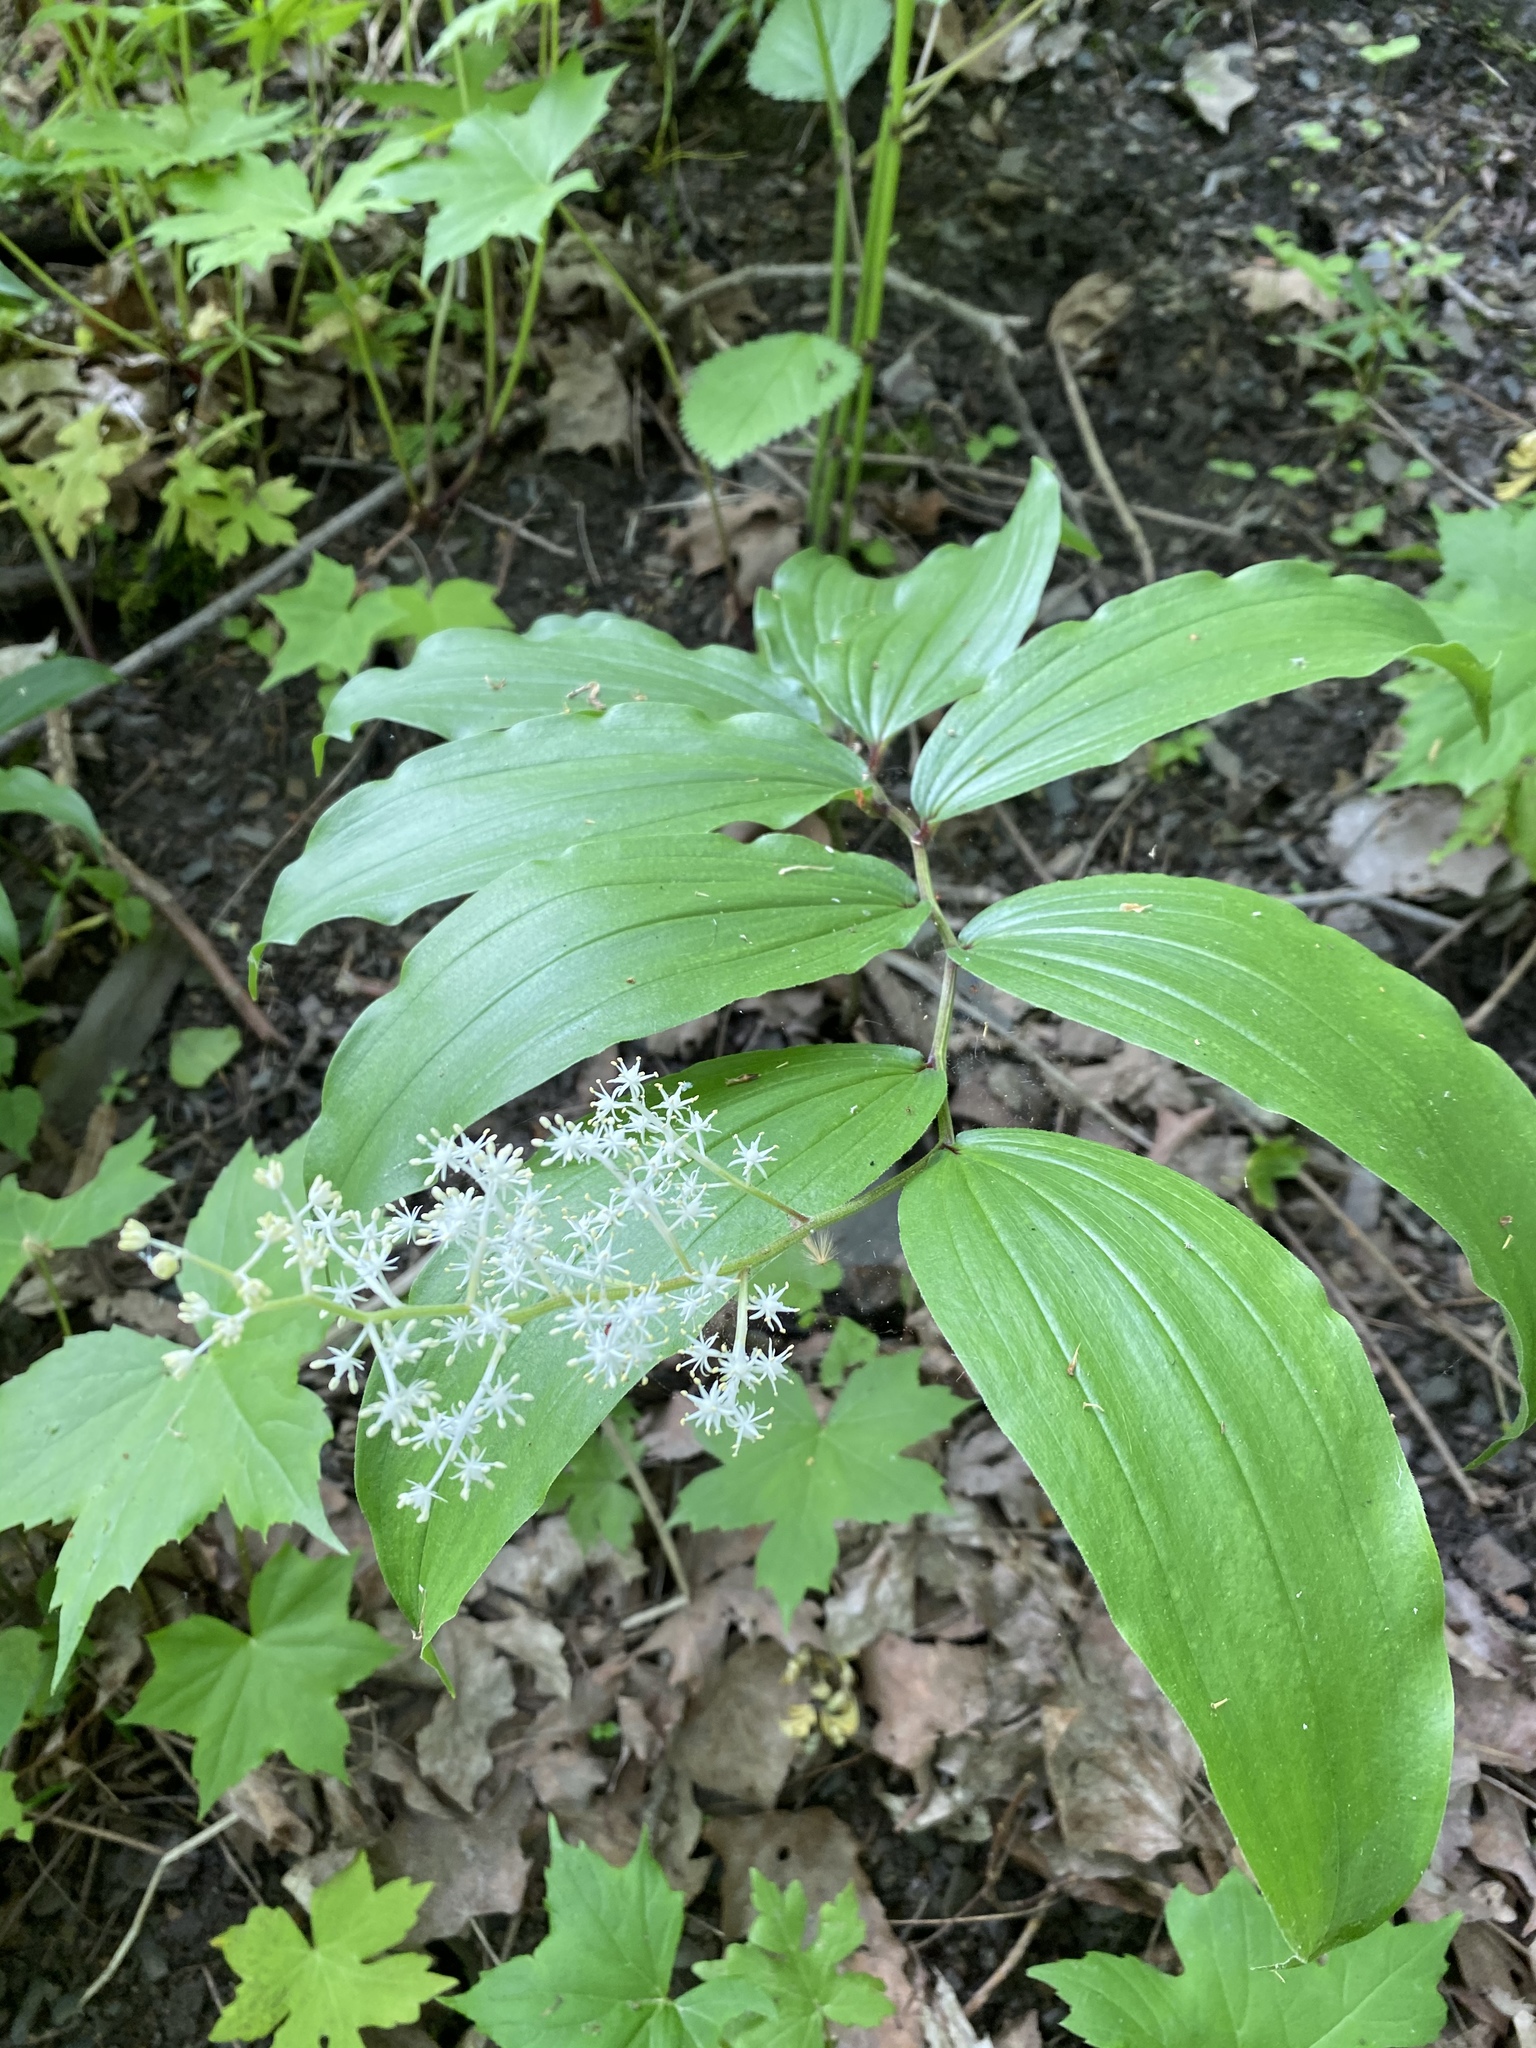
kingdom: Plantae
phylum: Tracheophyta
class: Liliopsida
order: Asparagales
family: Asparagaceae
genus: Maianthemum
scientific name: Maianthemum racemosum
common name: False spikenard
